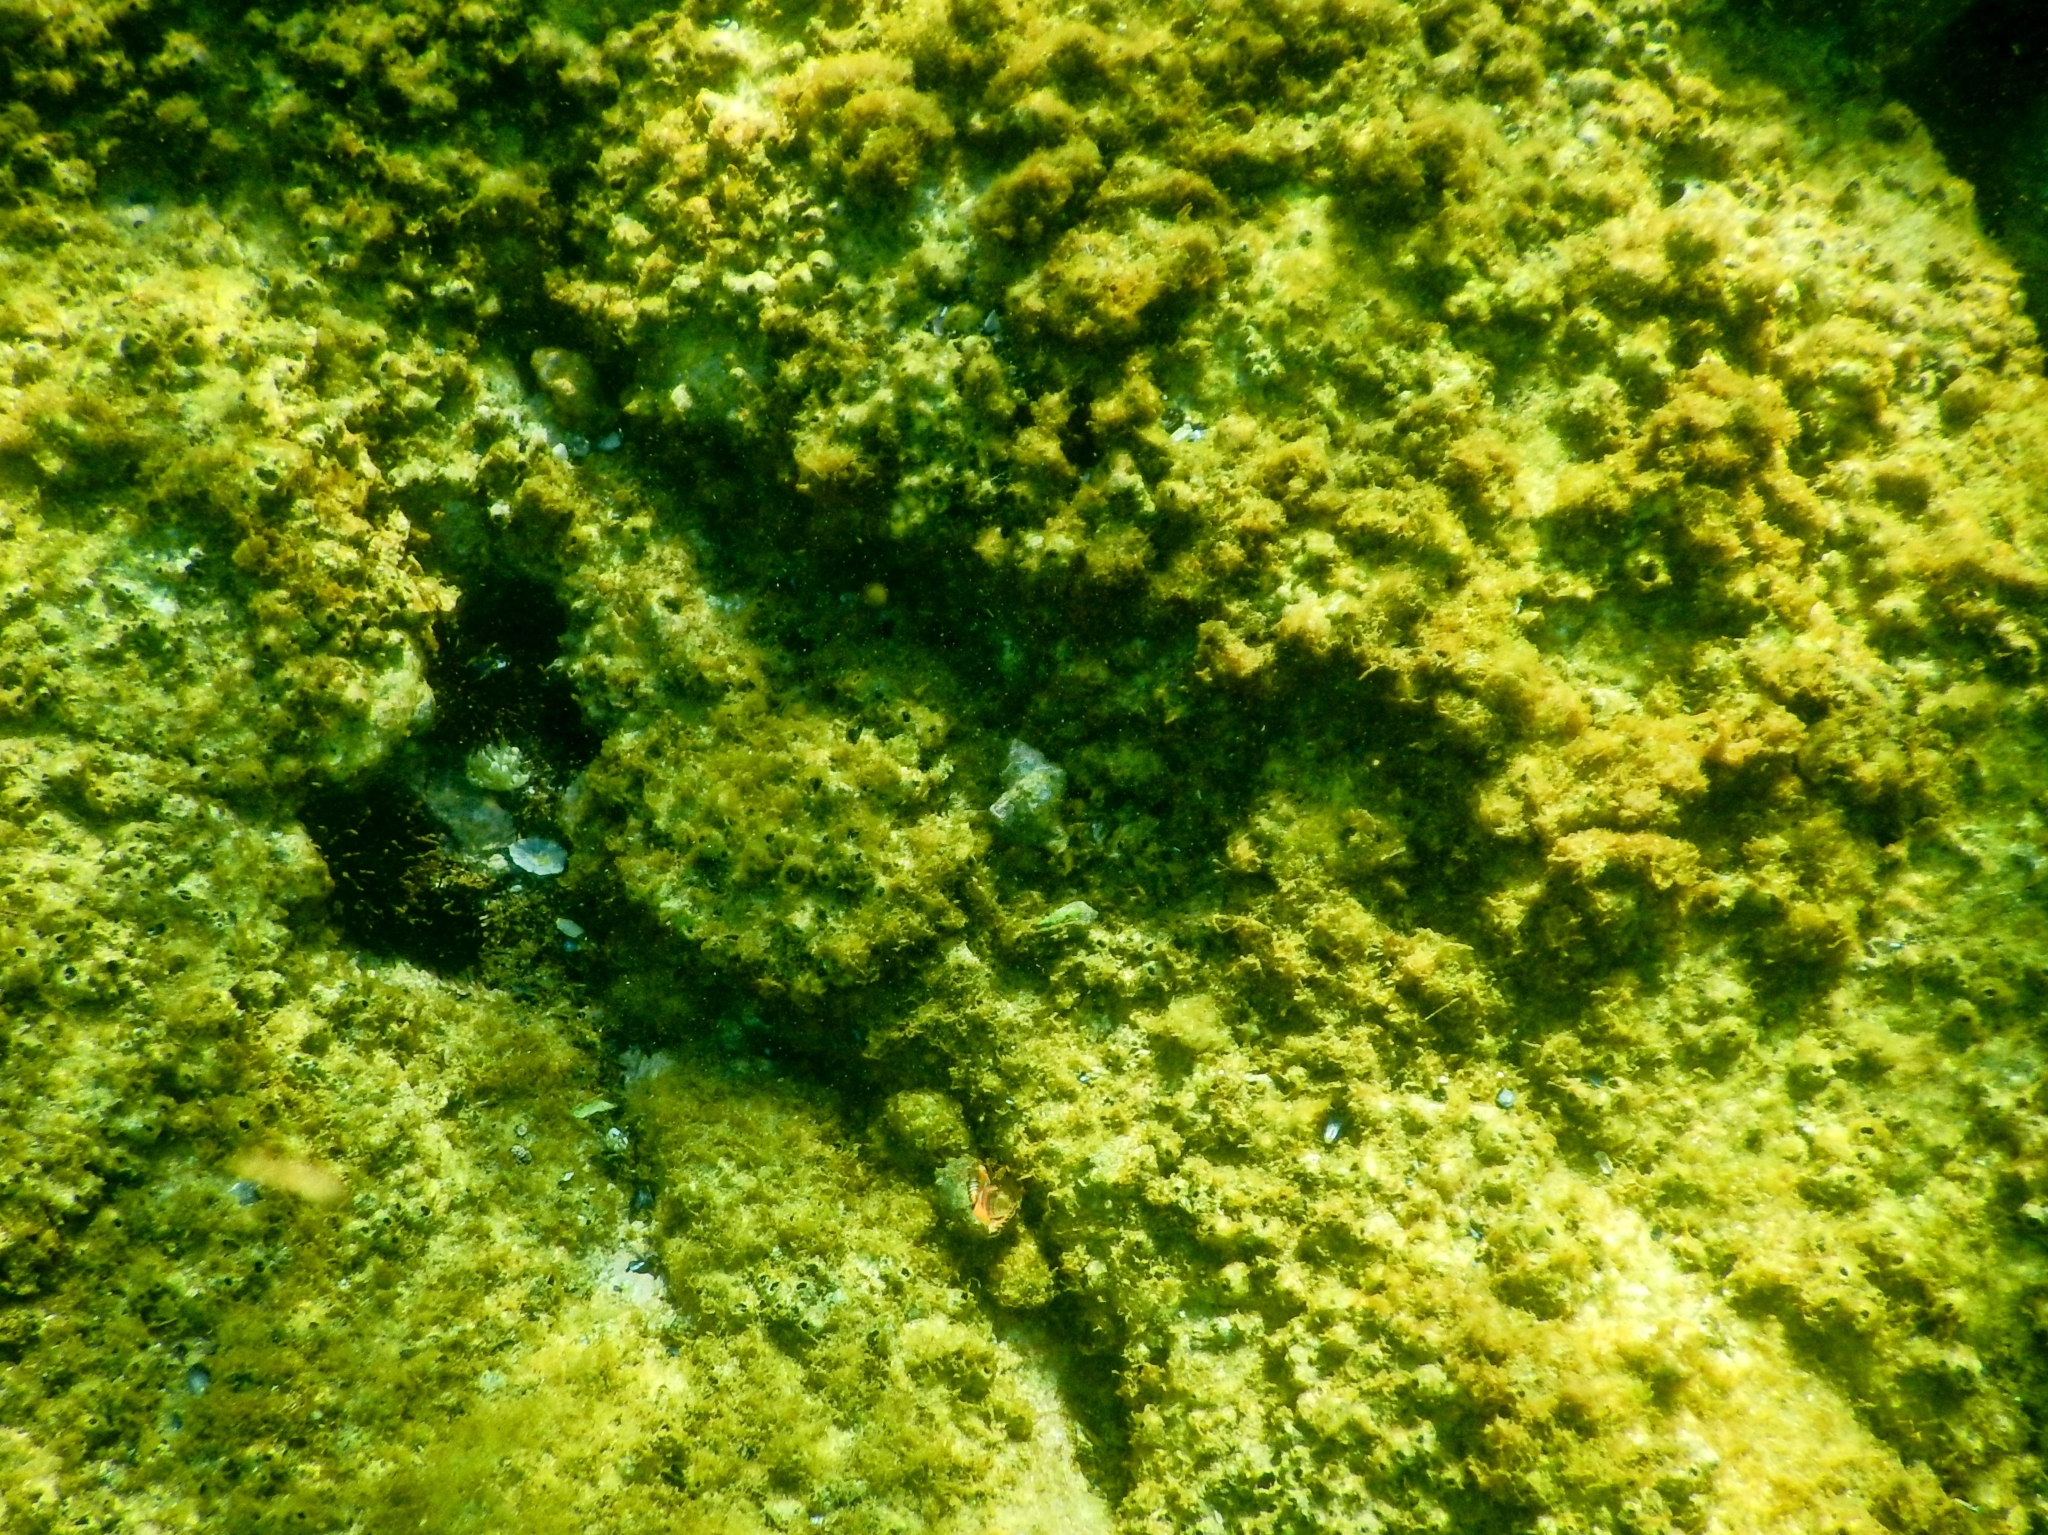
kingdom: Animalia
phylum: Mollusca
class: Gastropoda
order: Neogastropoda
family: Muricidae
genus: Stramonita
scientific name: Stramonita haemastoma
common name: Florida dog winkle
